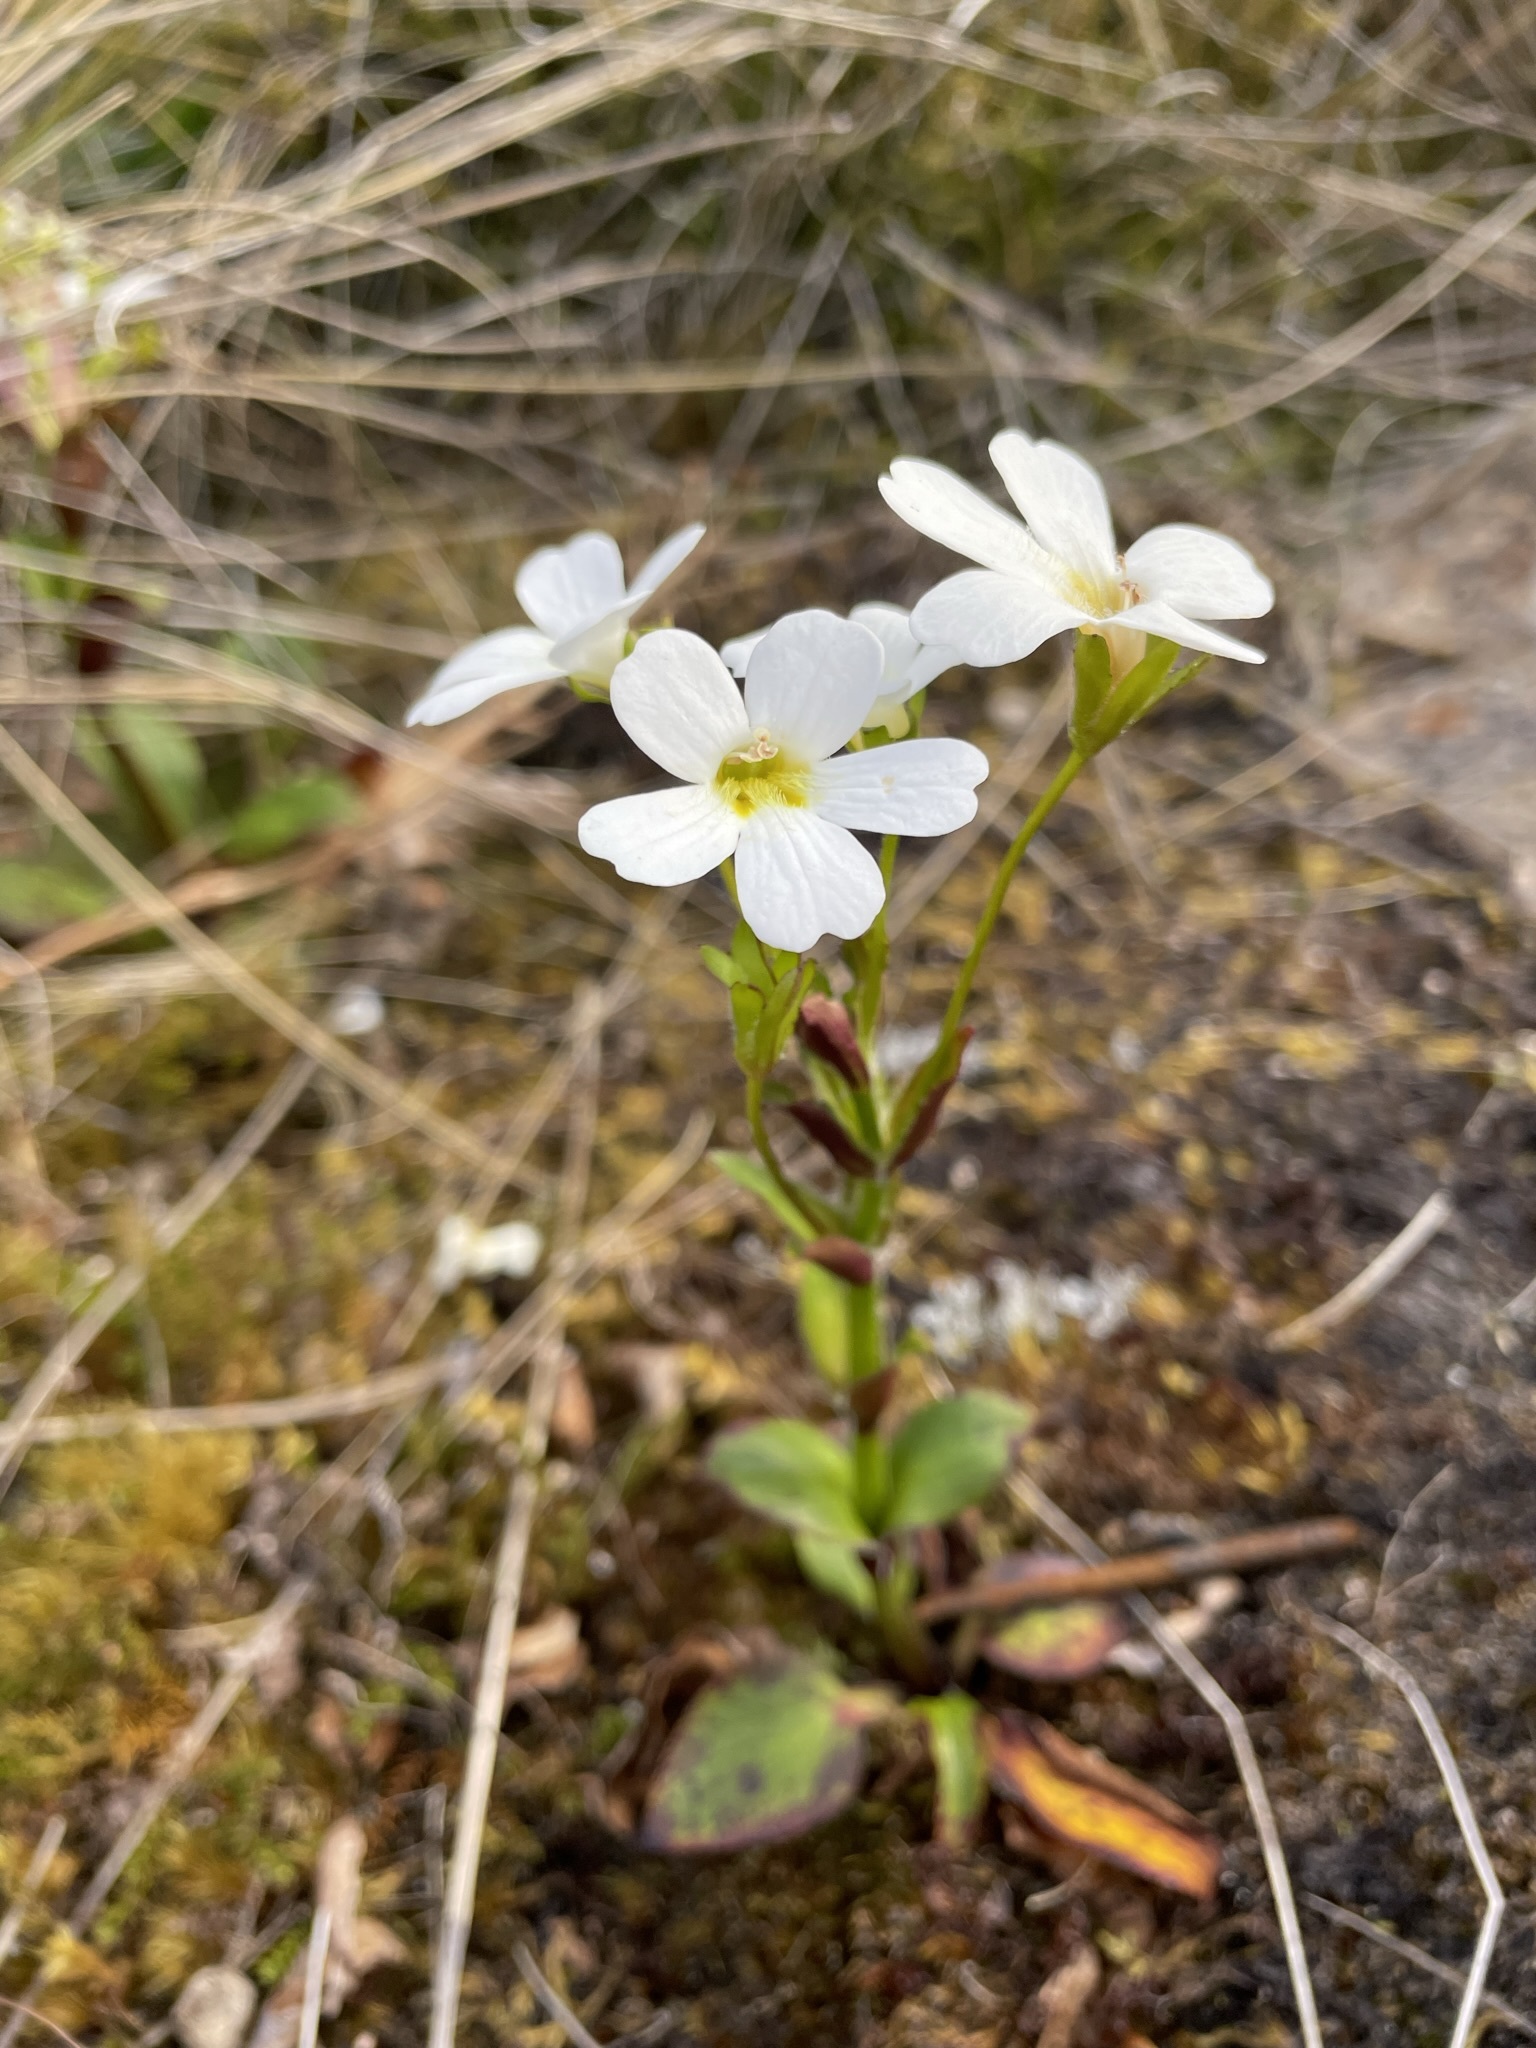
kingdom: Plantae
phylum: Tracheophyta
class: Magnoliopsida
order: Lamiales
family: Plantaginaceae
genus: Ourisia
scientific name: Ourisia calycina
